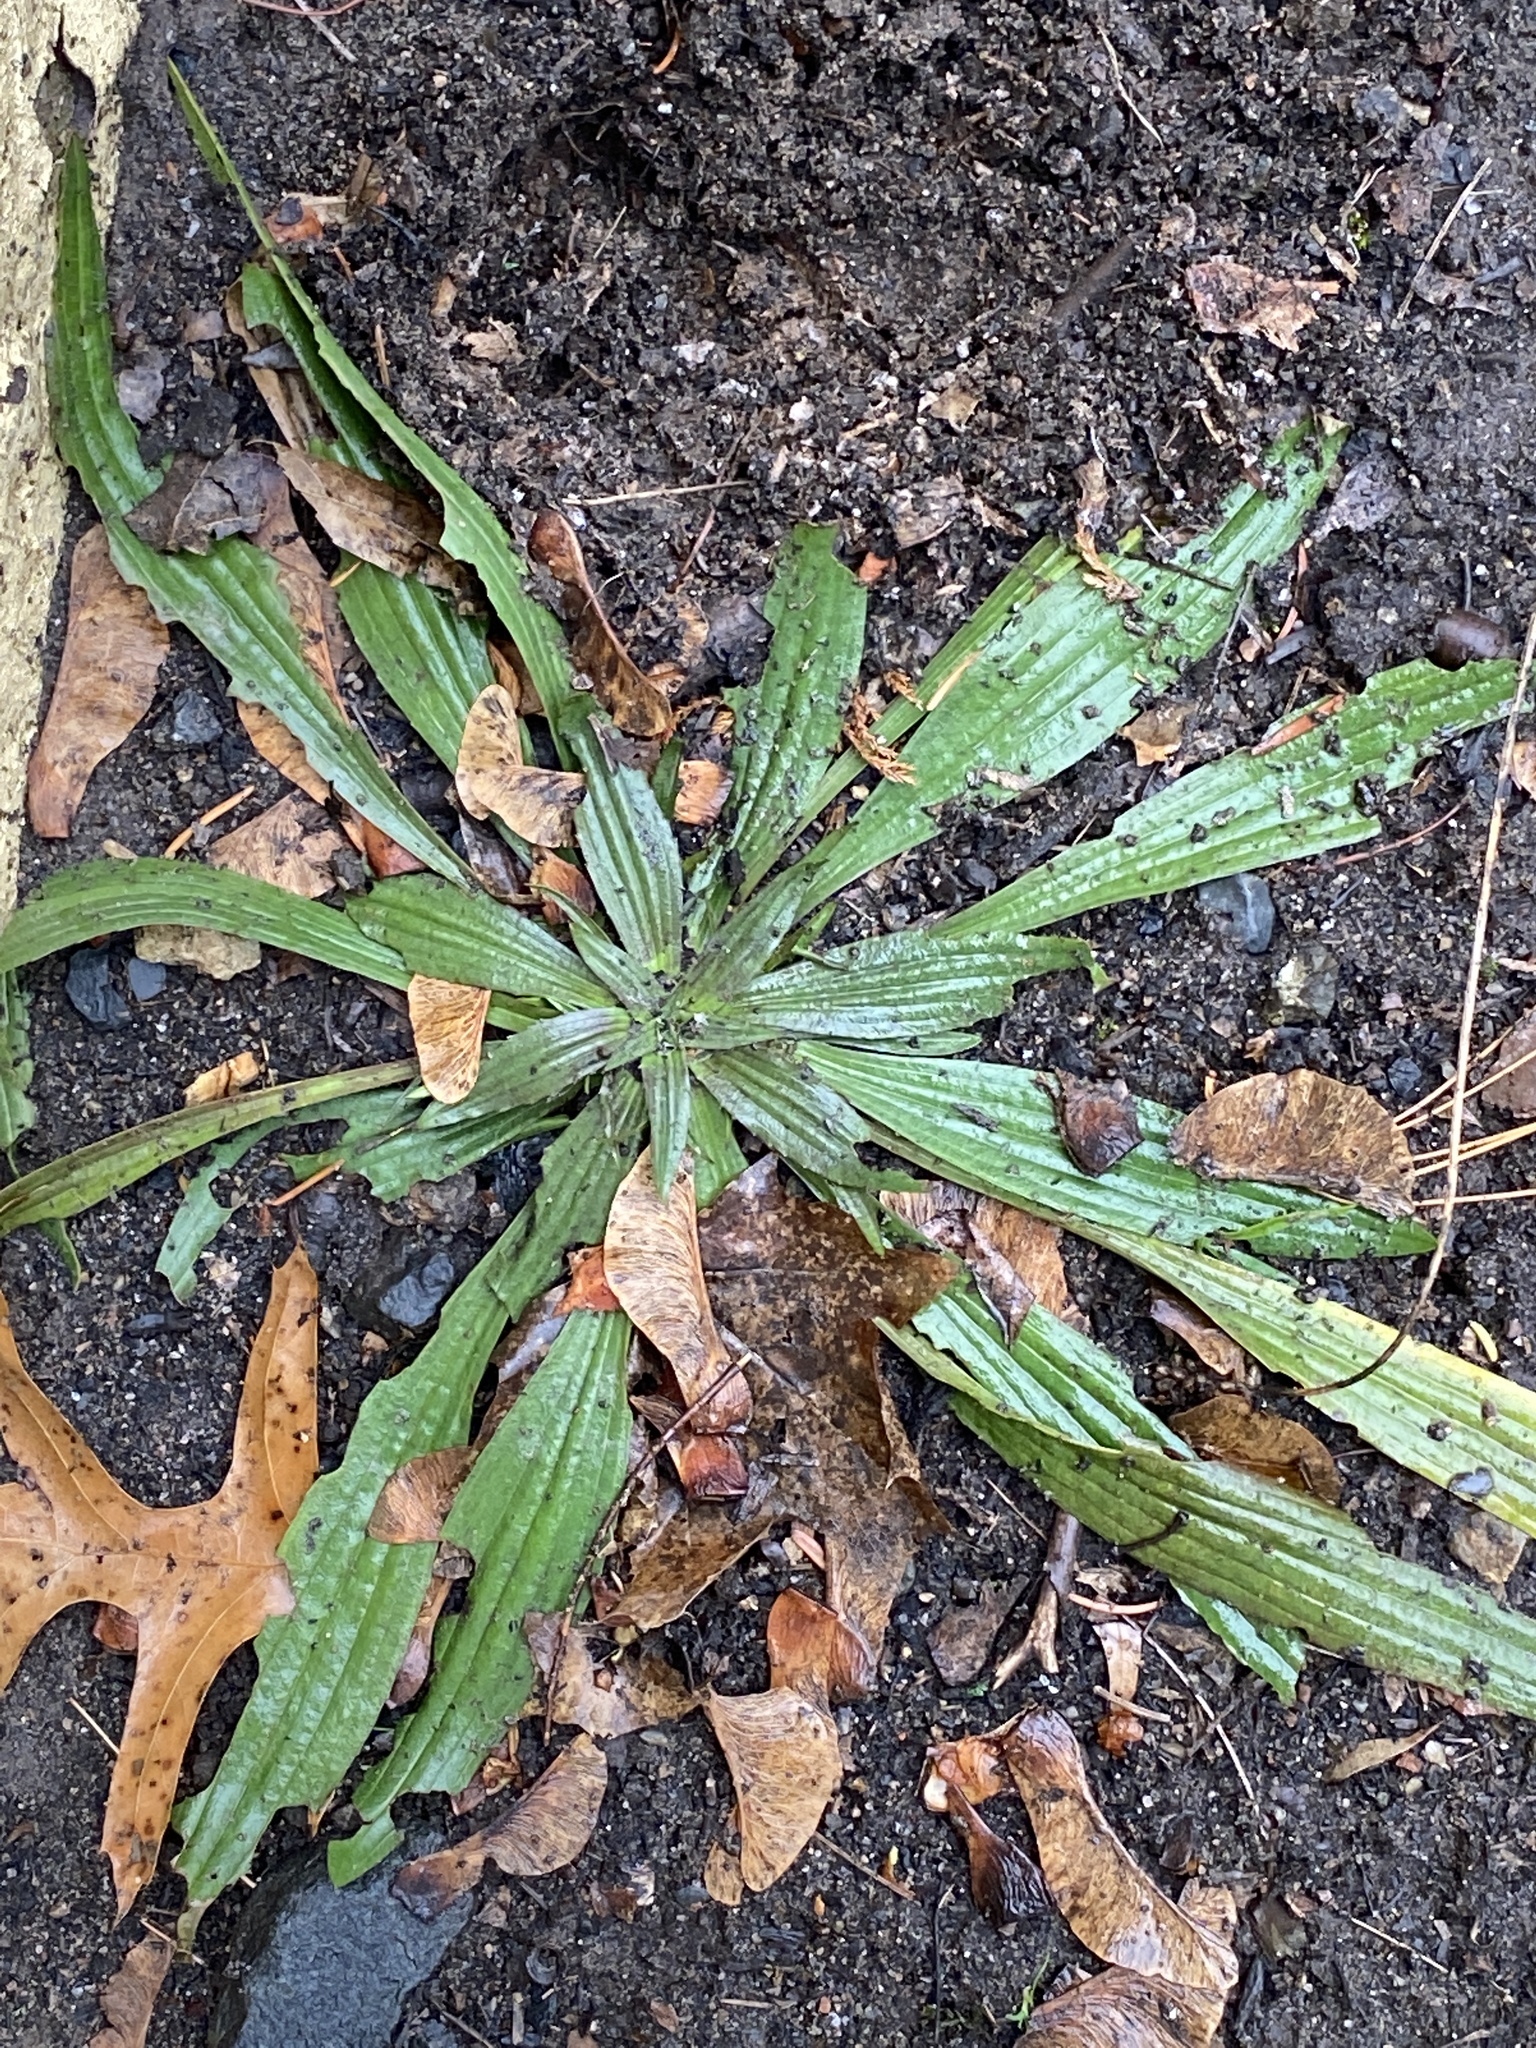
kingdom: Plantae
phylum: Tracheophyta
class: Magnoliopsida
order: Lamiales
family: Plantaginaceae
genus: Plantago
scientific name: Plantago lanceolata
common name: Ribwort plantain
